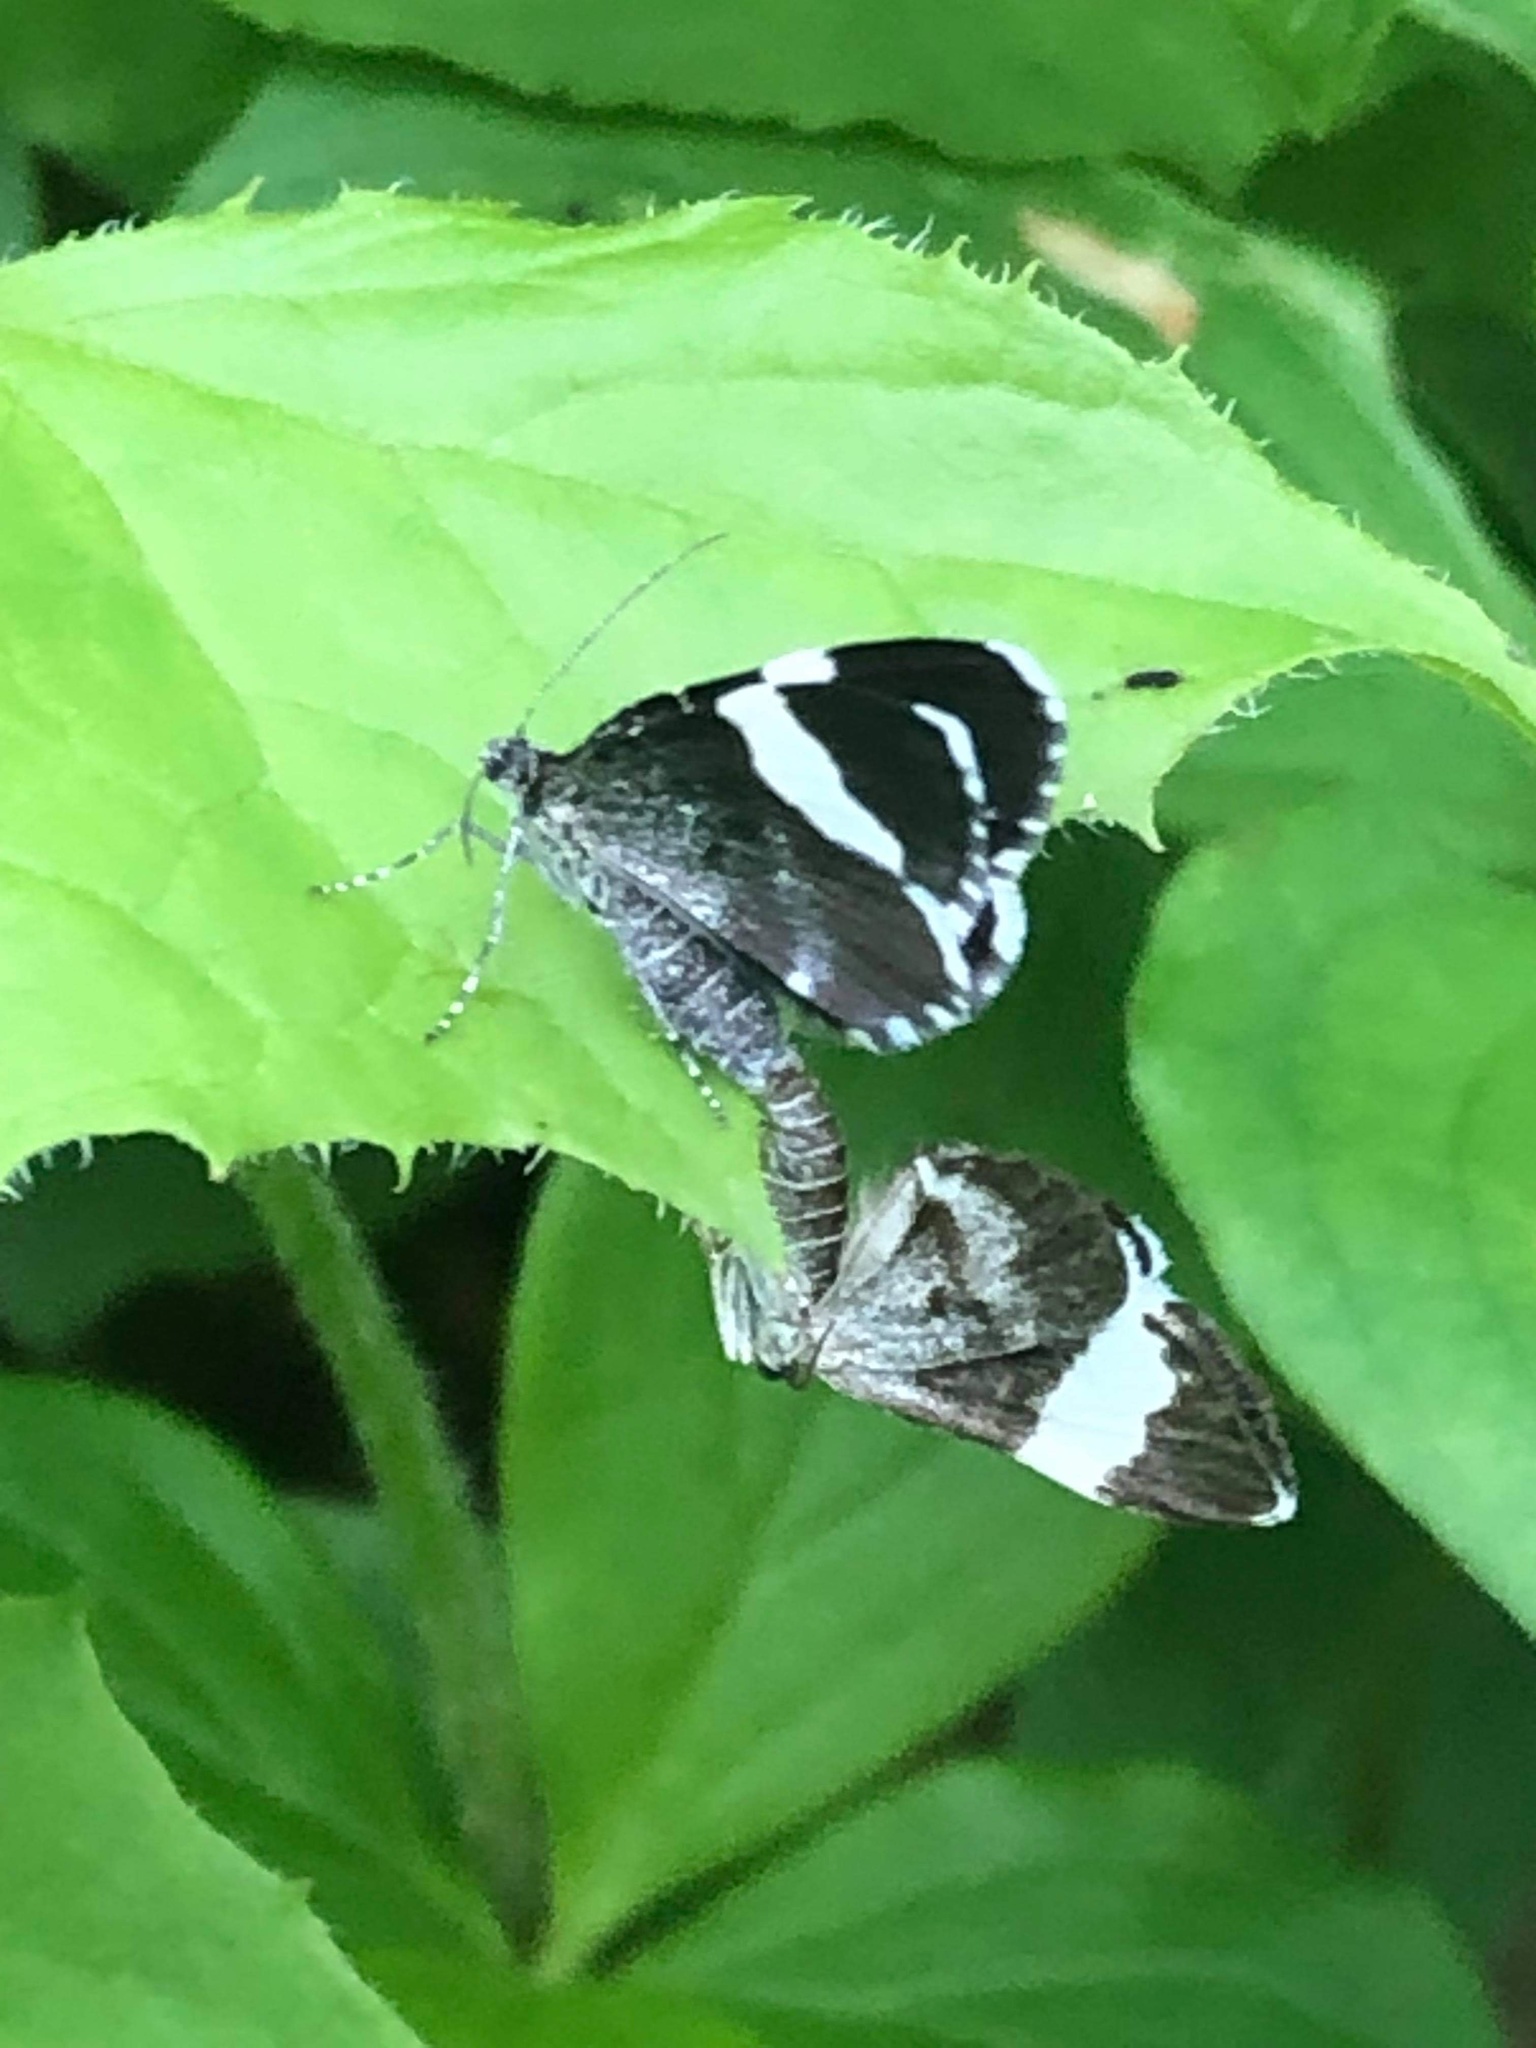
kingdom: Animalia
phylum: Arthropoda
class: Insecta
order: Lepidoptera
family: Geometridae
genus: Trichodezia
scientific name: Trichodezia albovittata
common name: White striped black
